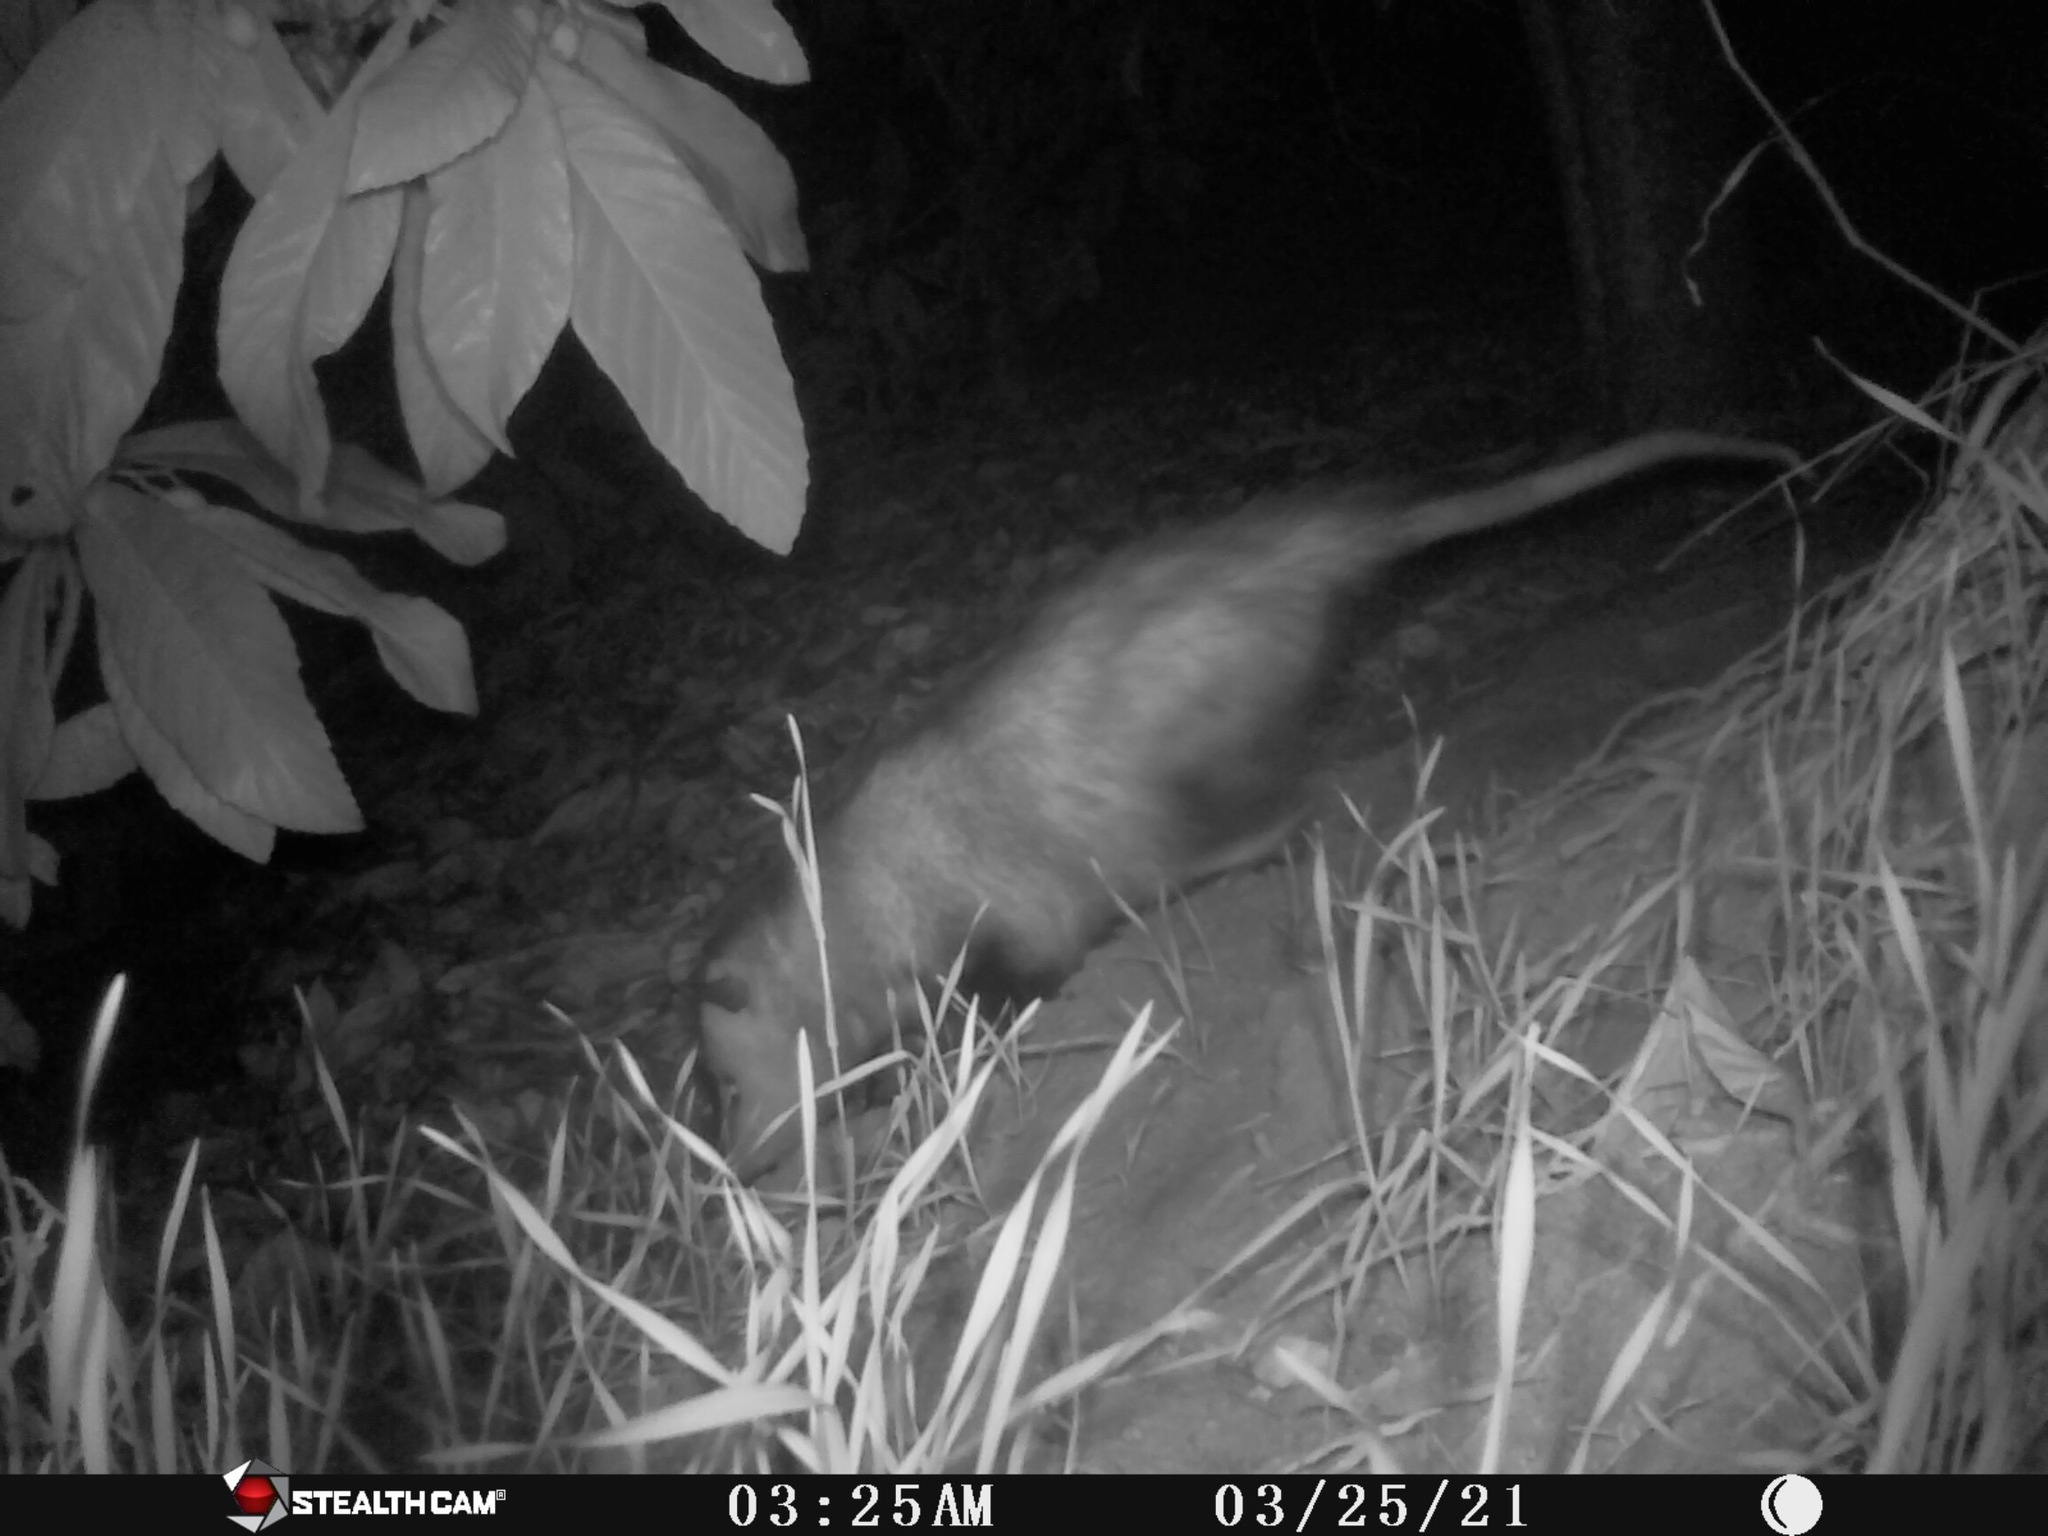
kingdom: Animalia
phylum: Chordata
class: Mammalia
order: Didelphimorphia
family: Didelphidae
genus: Didelphis
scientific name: Didelphis virginiana
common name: Virginia opossum
